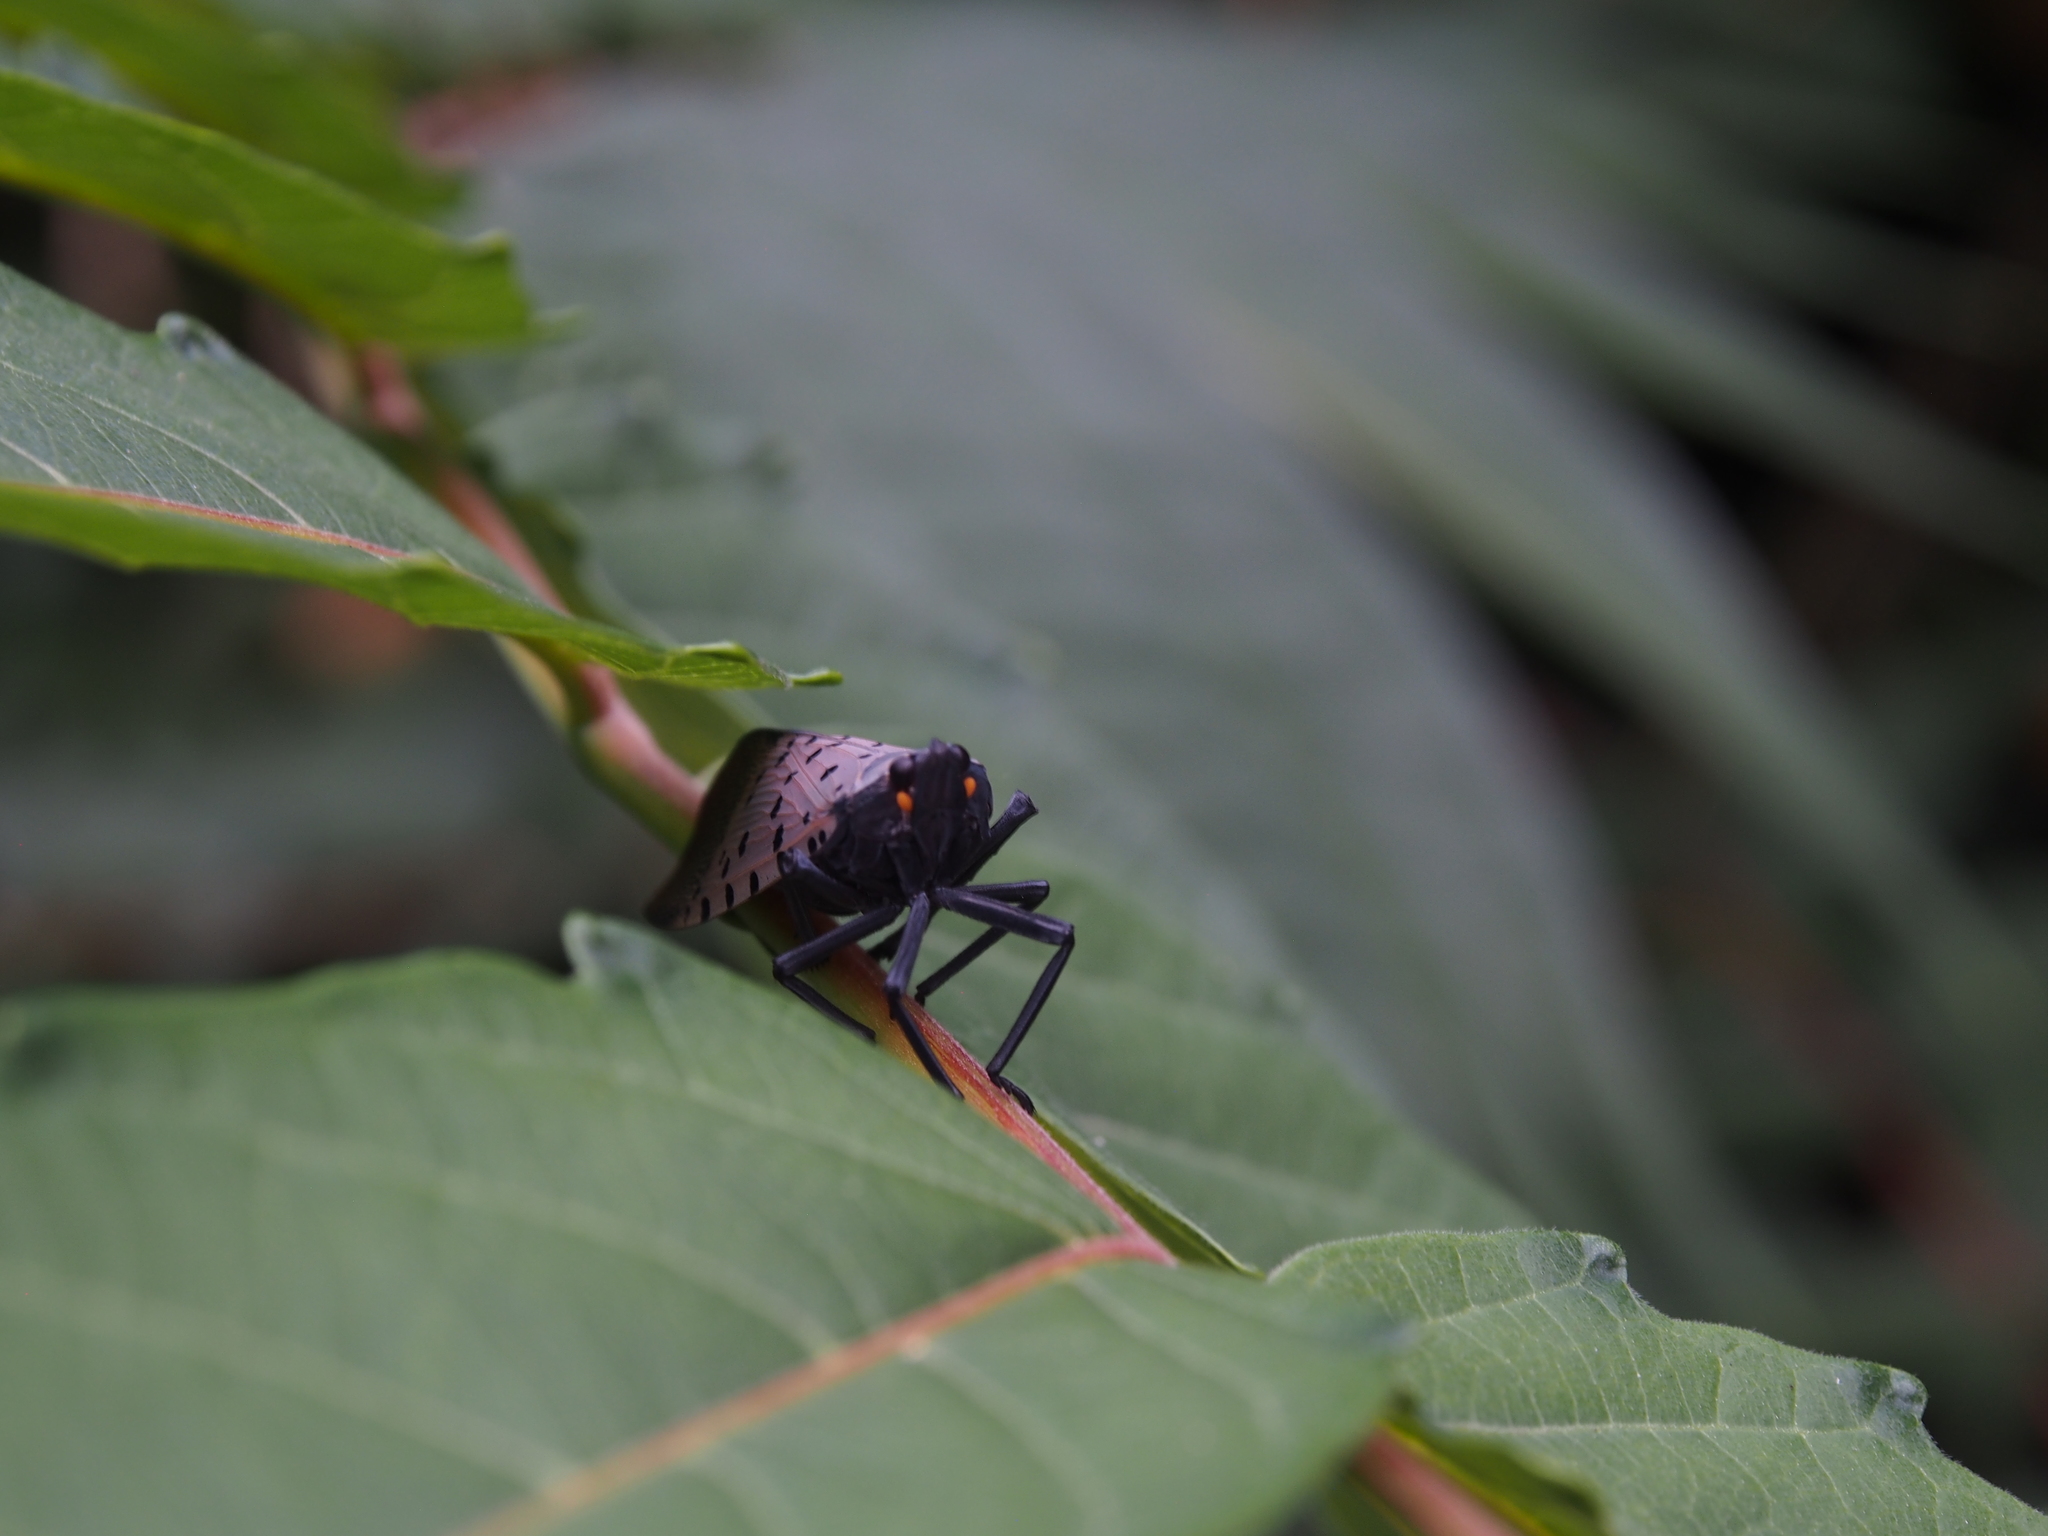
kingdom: Animalia
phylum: Arthropoda
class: Insecta
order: Hemiptera
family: Fulgoridae
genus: Lycorma
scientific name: Lycorma delicatula
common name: Spotted lanternfly
